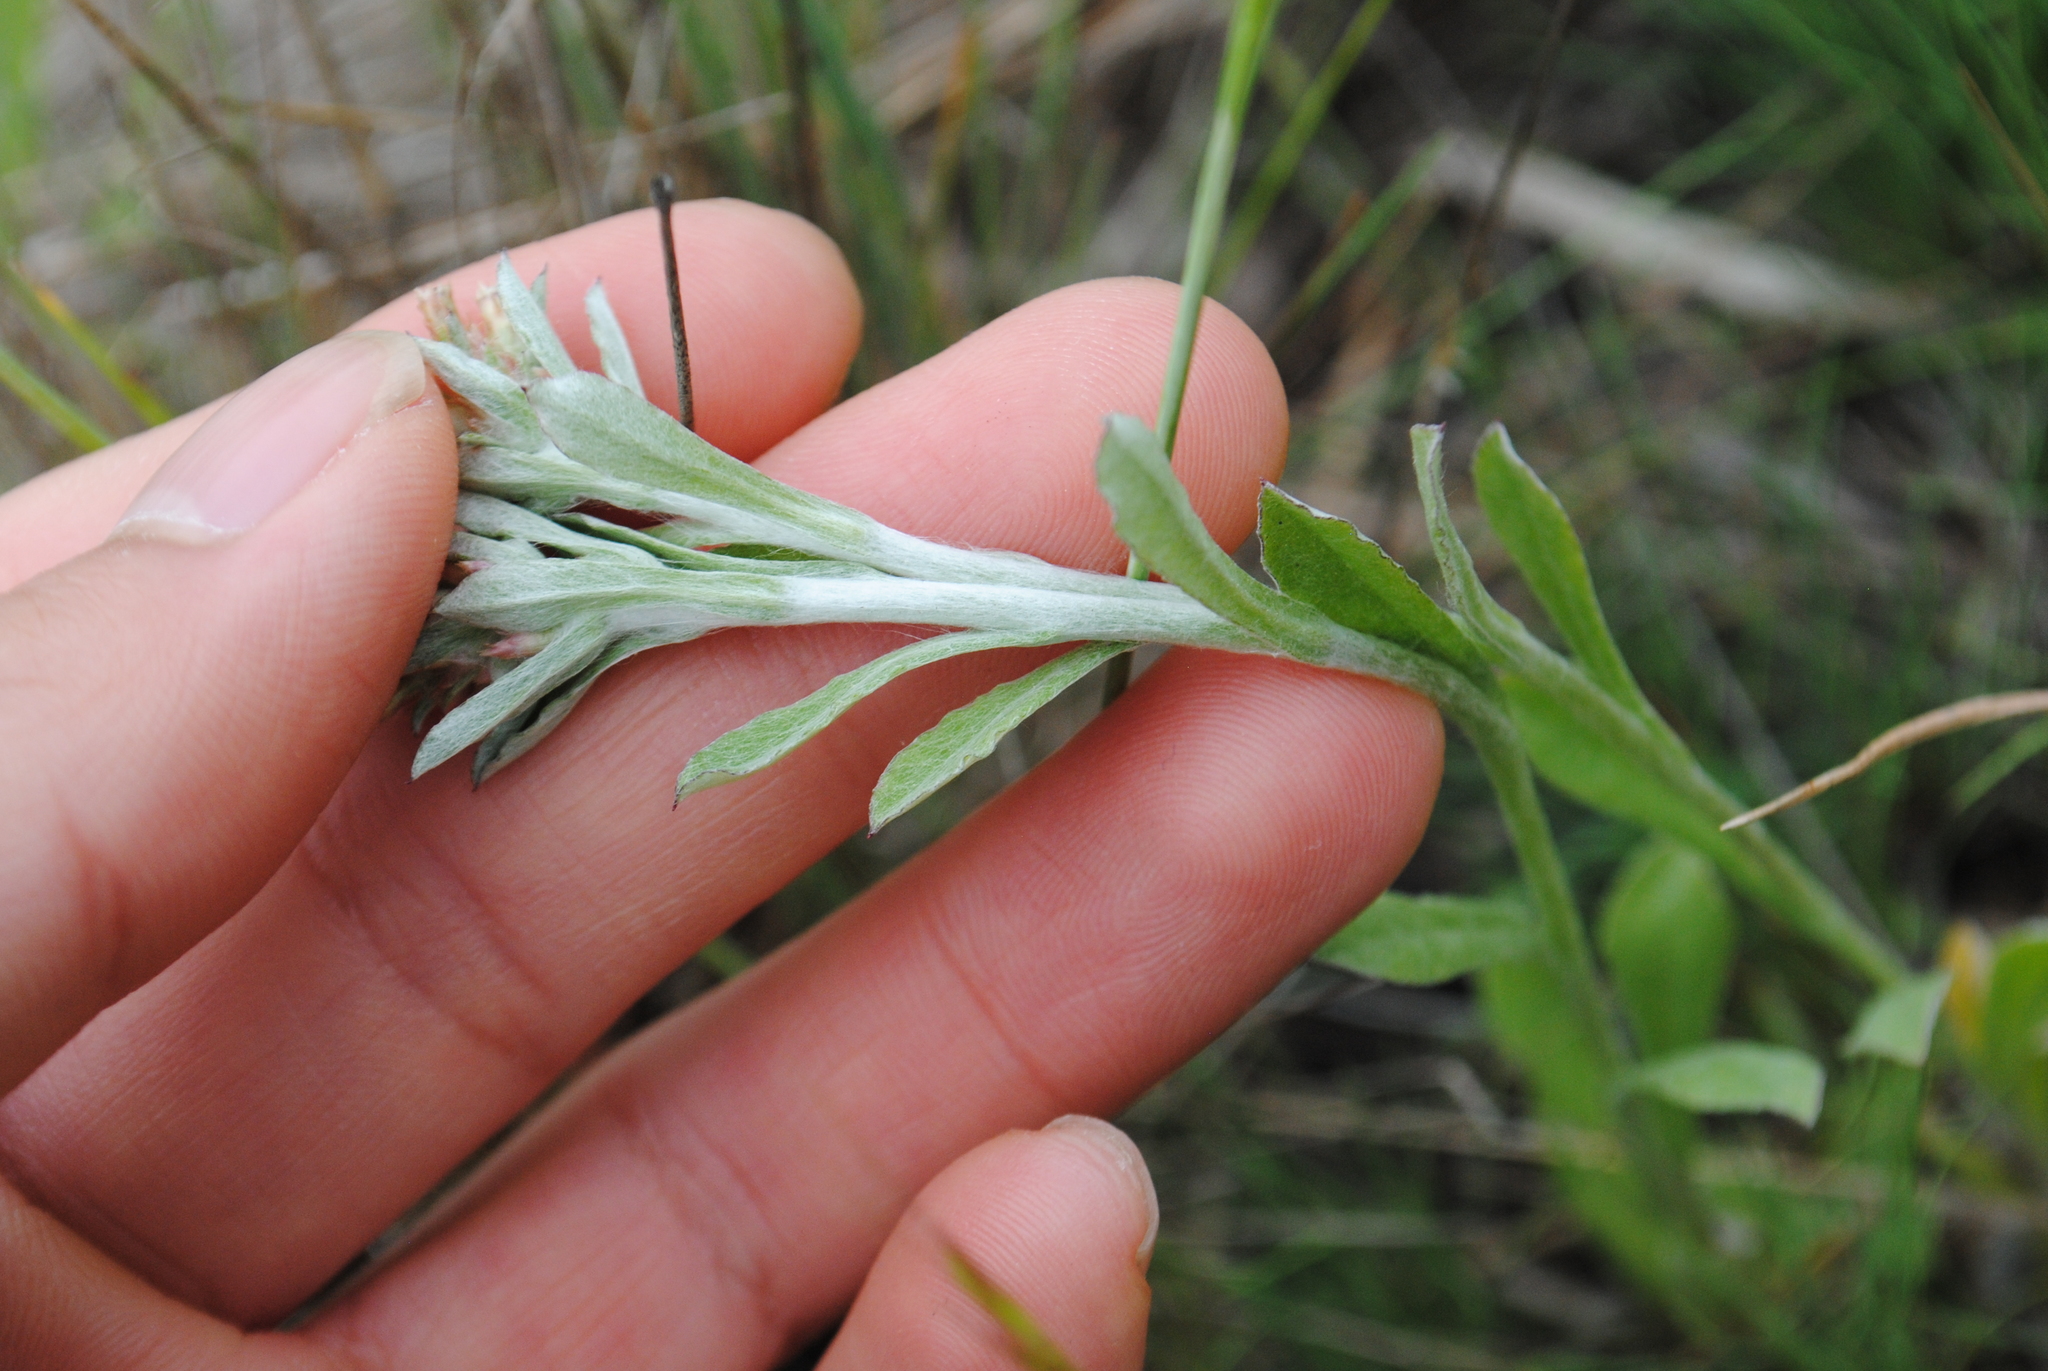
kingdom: Plantae
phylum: Tracheophyta
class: Magnoliopsida
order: Asterales
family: Asteraceae
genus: Gamochaeta
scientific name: Gamochaeta purpurea
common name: Purple cudweed
